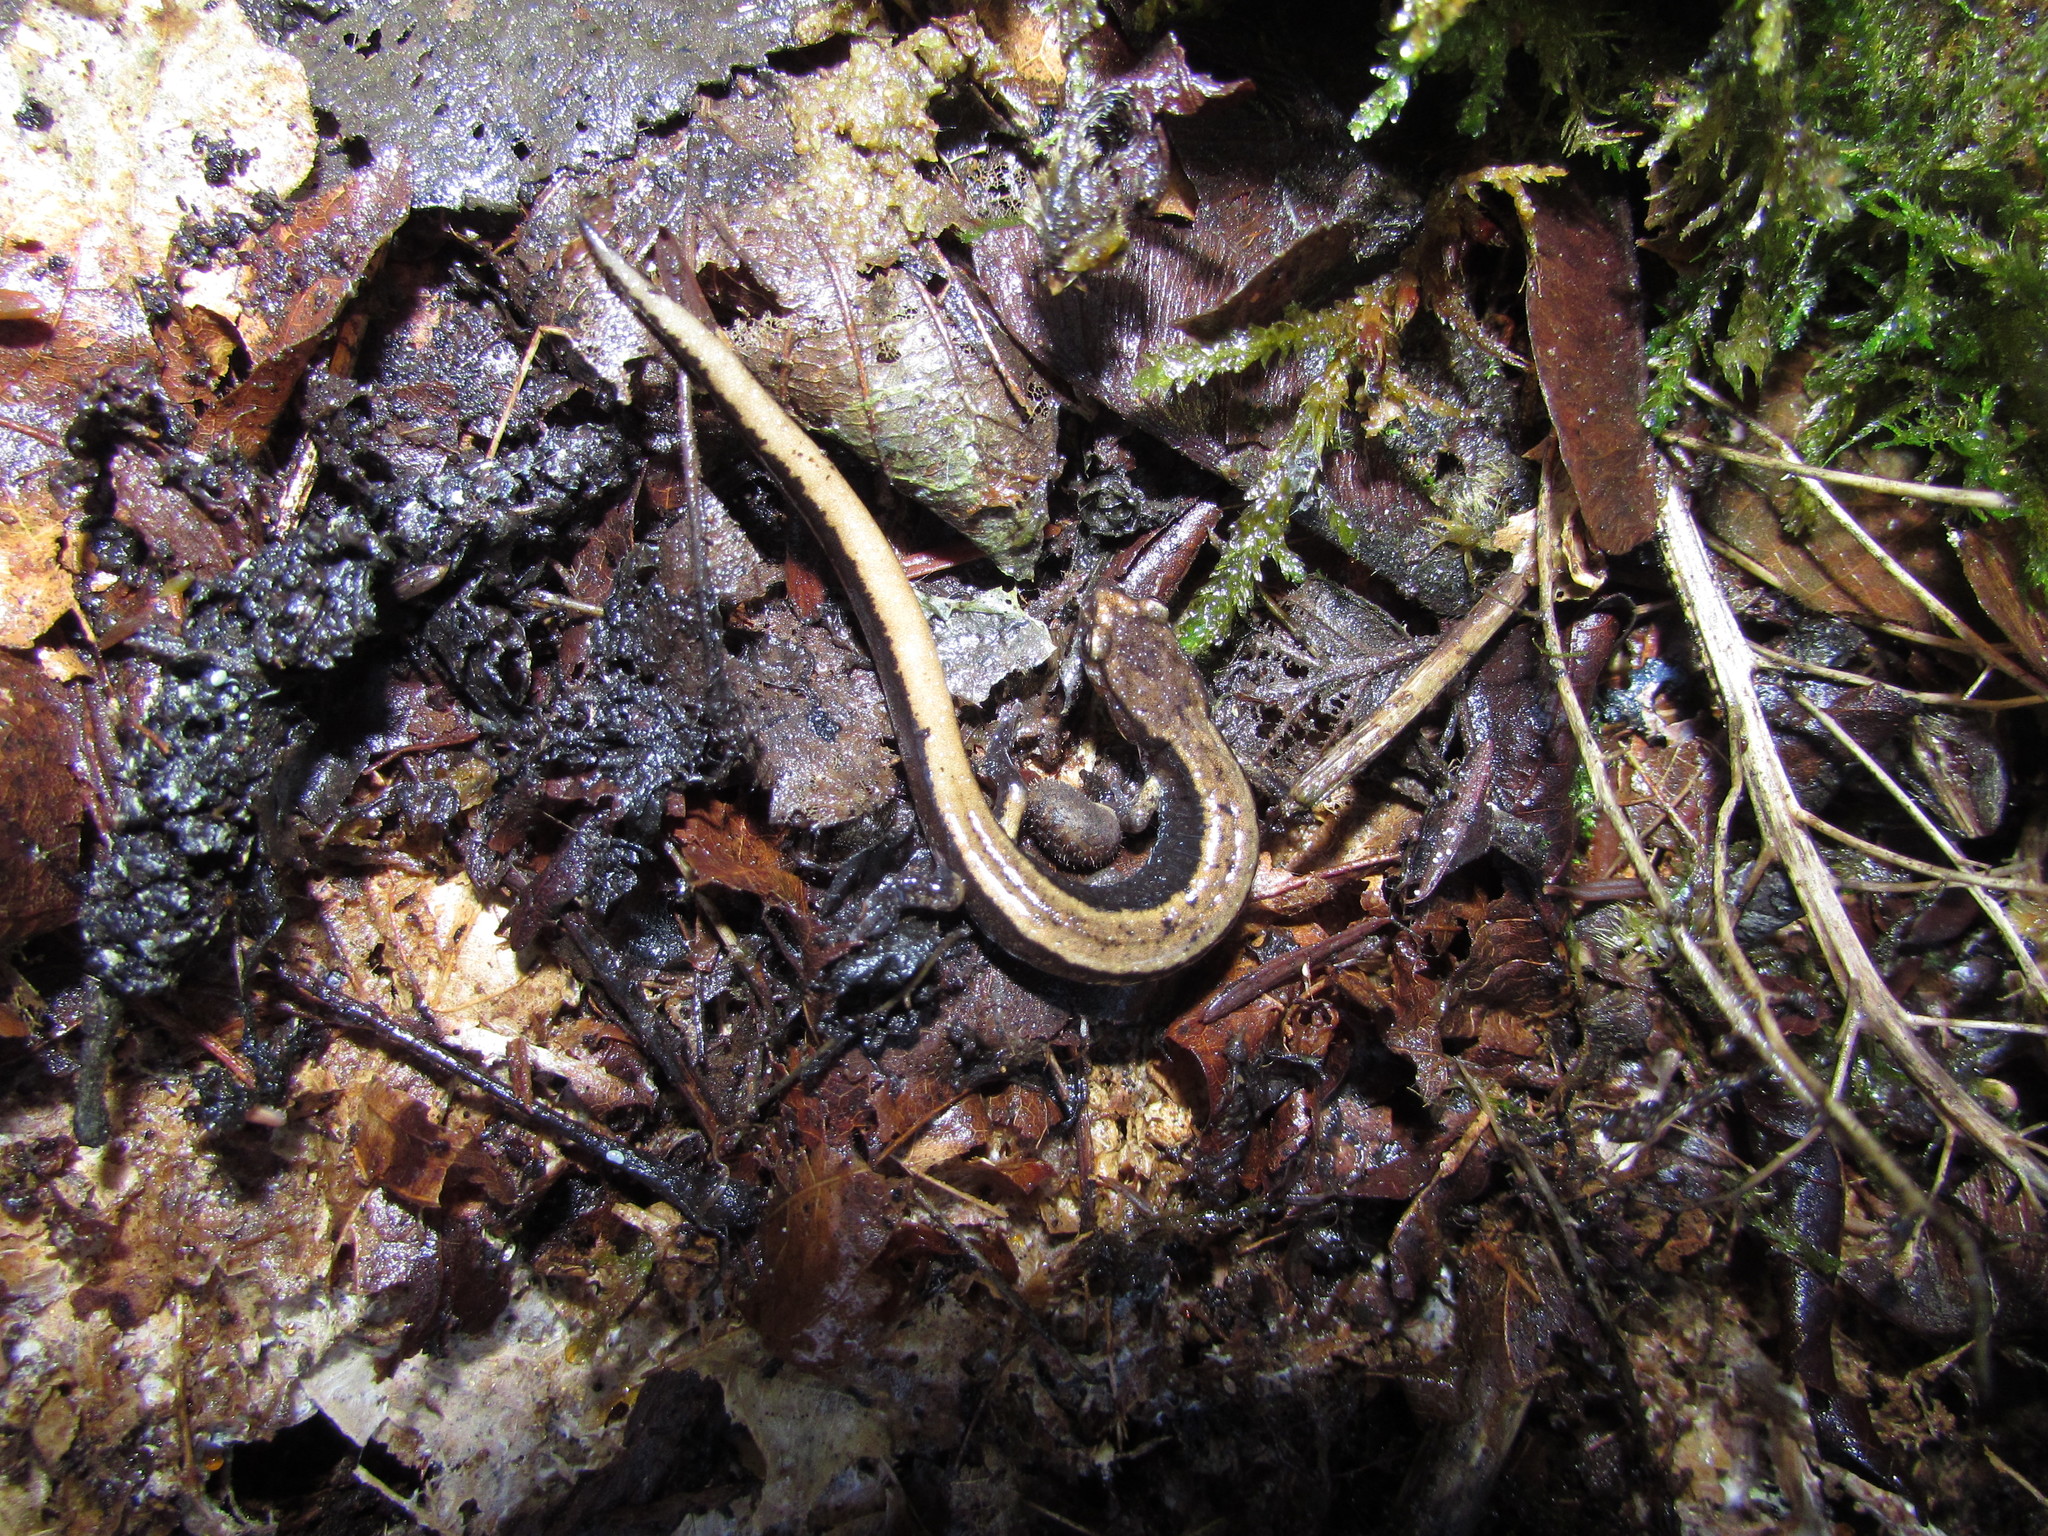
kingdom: Animalia
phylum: Chordata
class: Amphibia
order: Caudata
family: Plethodontidae
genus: Plethodon
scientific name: Plethodon vehiculum
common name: Western red-backed salamander
